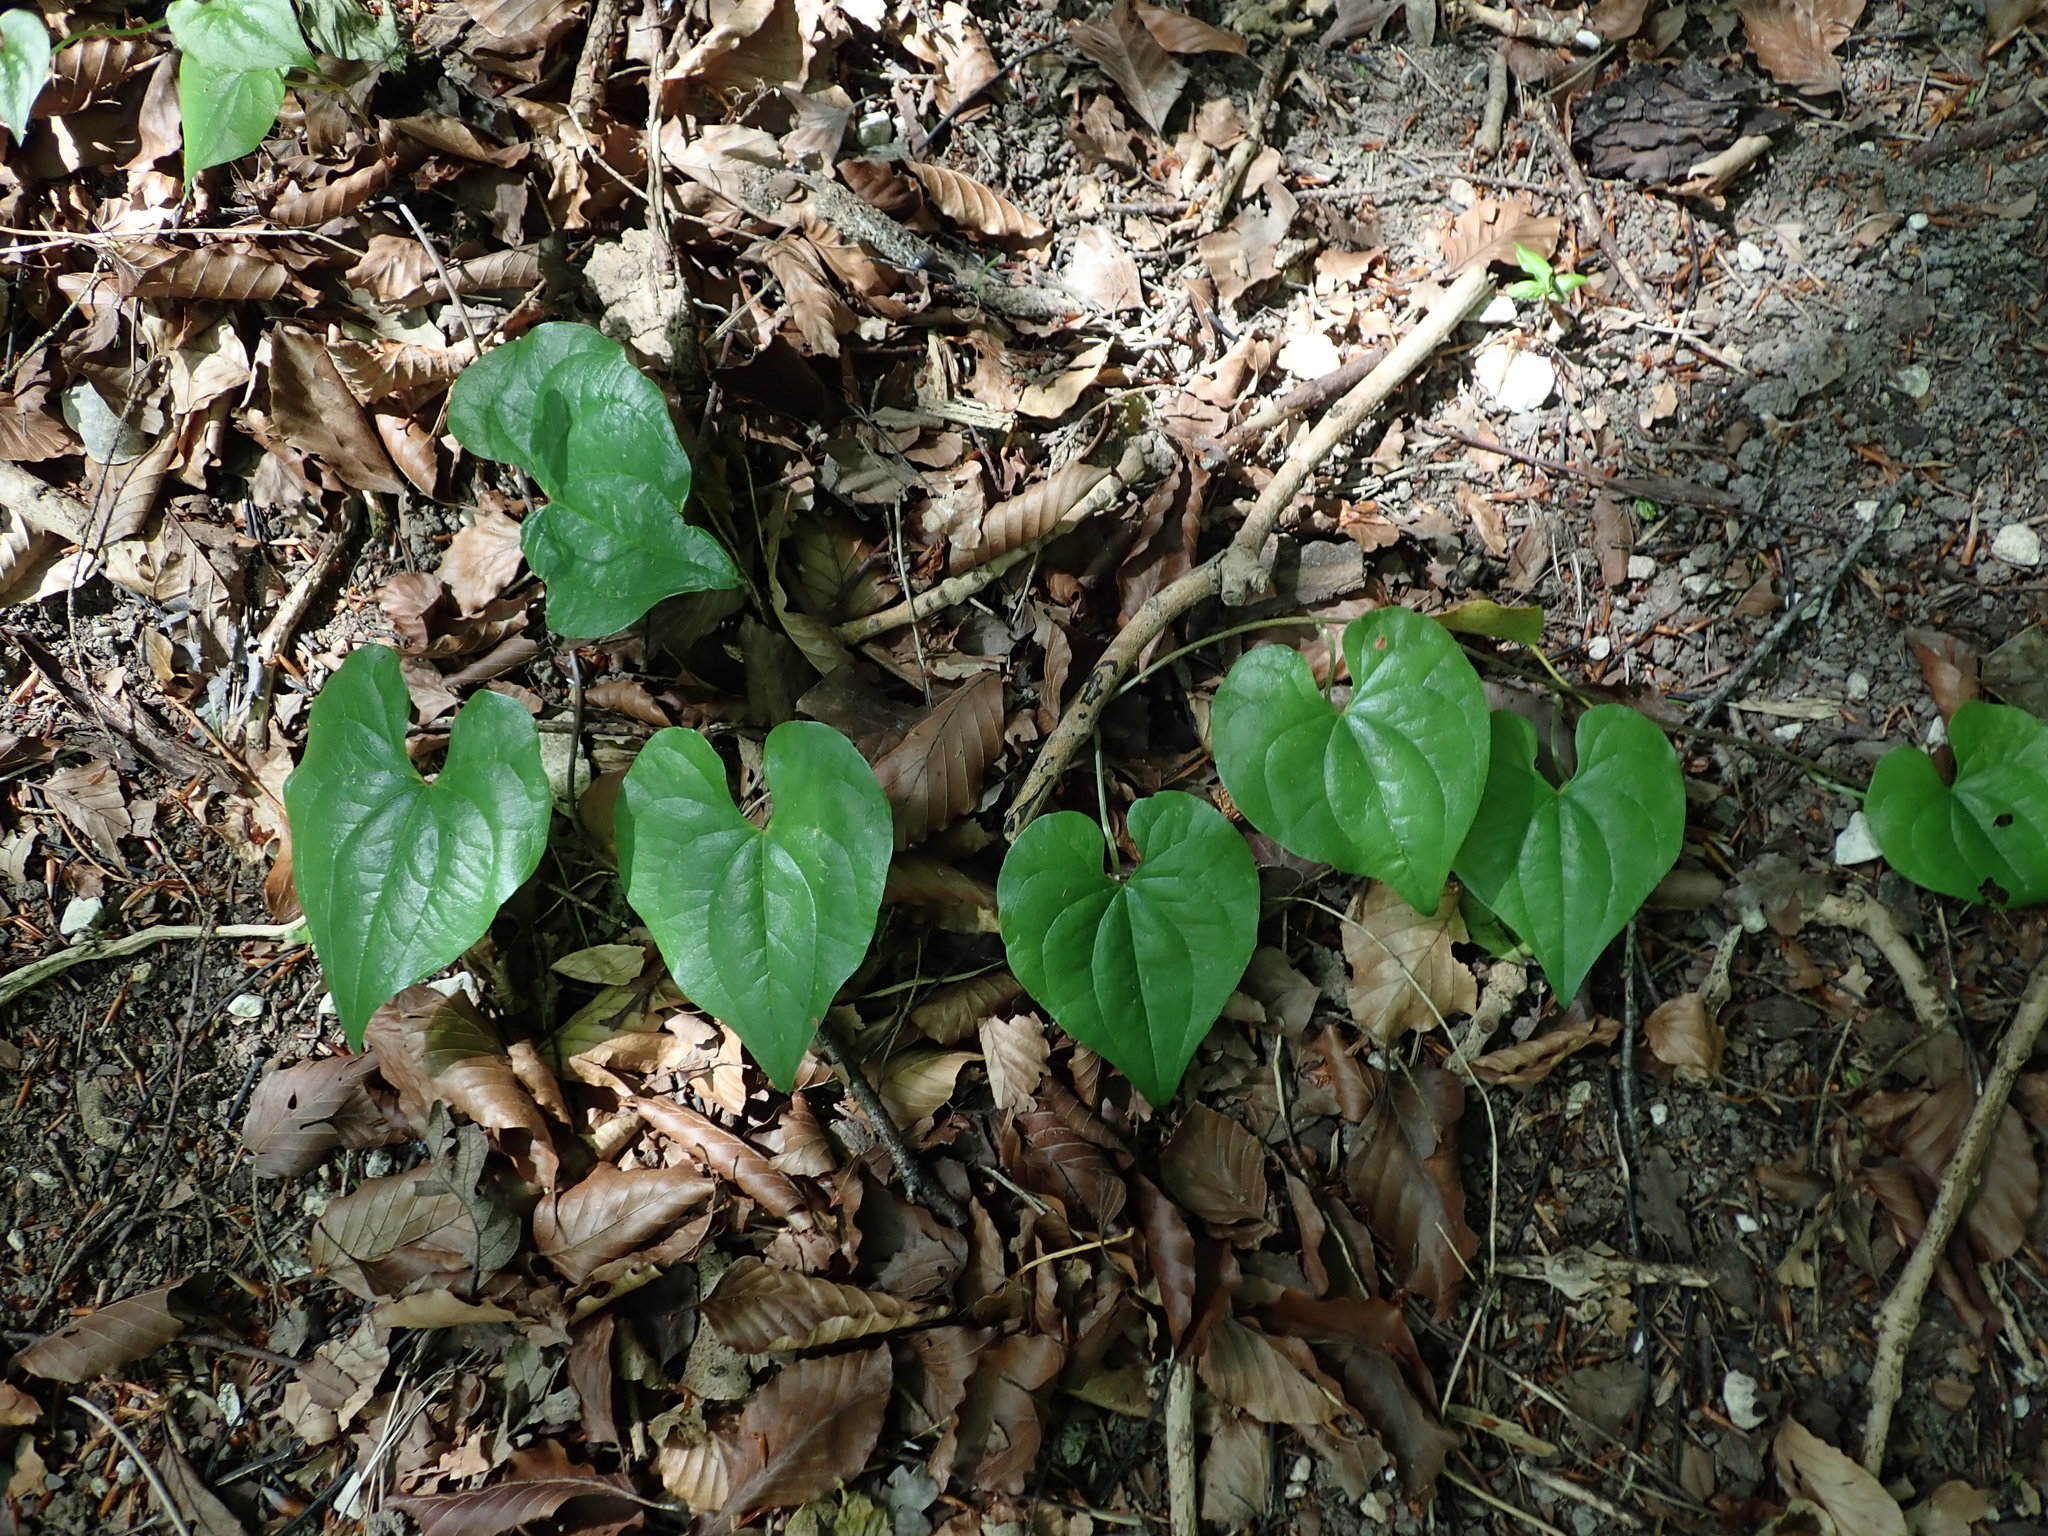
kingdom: Plantae
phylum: Tracheophyta
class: Liliopsida
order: Dioscoreales
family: Dioscoreaceae
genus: Dioscorea
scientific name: Dioscorea communis
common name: Black-bindweed
